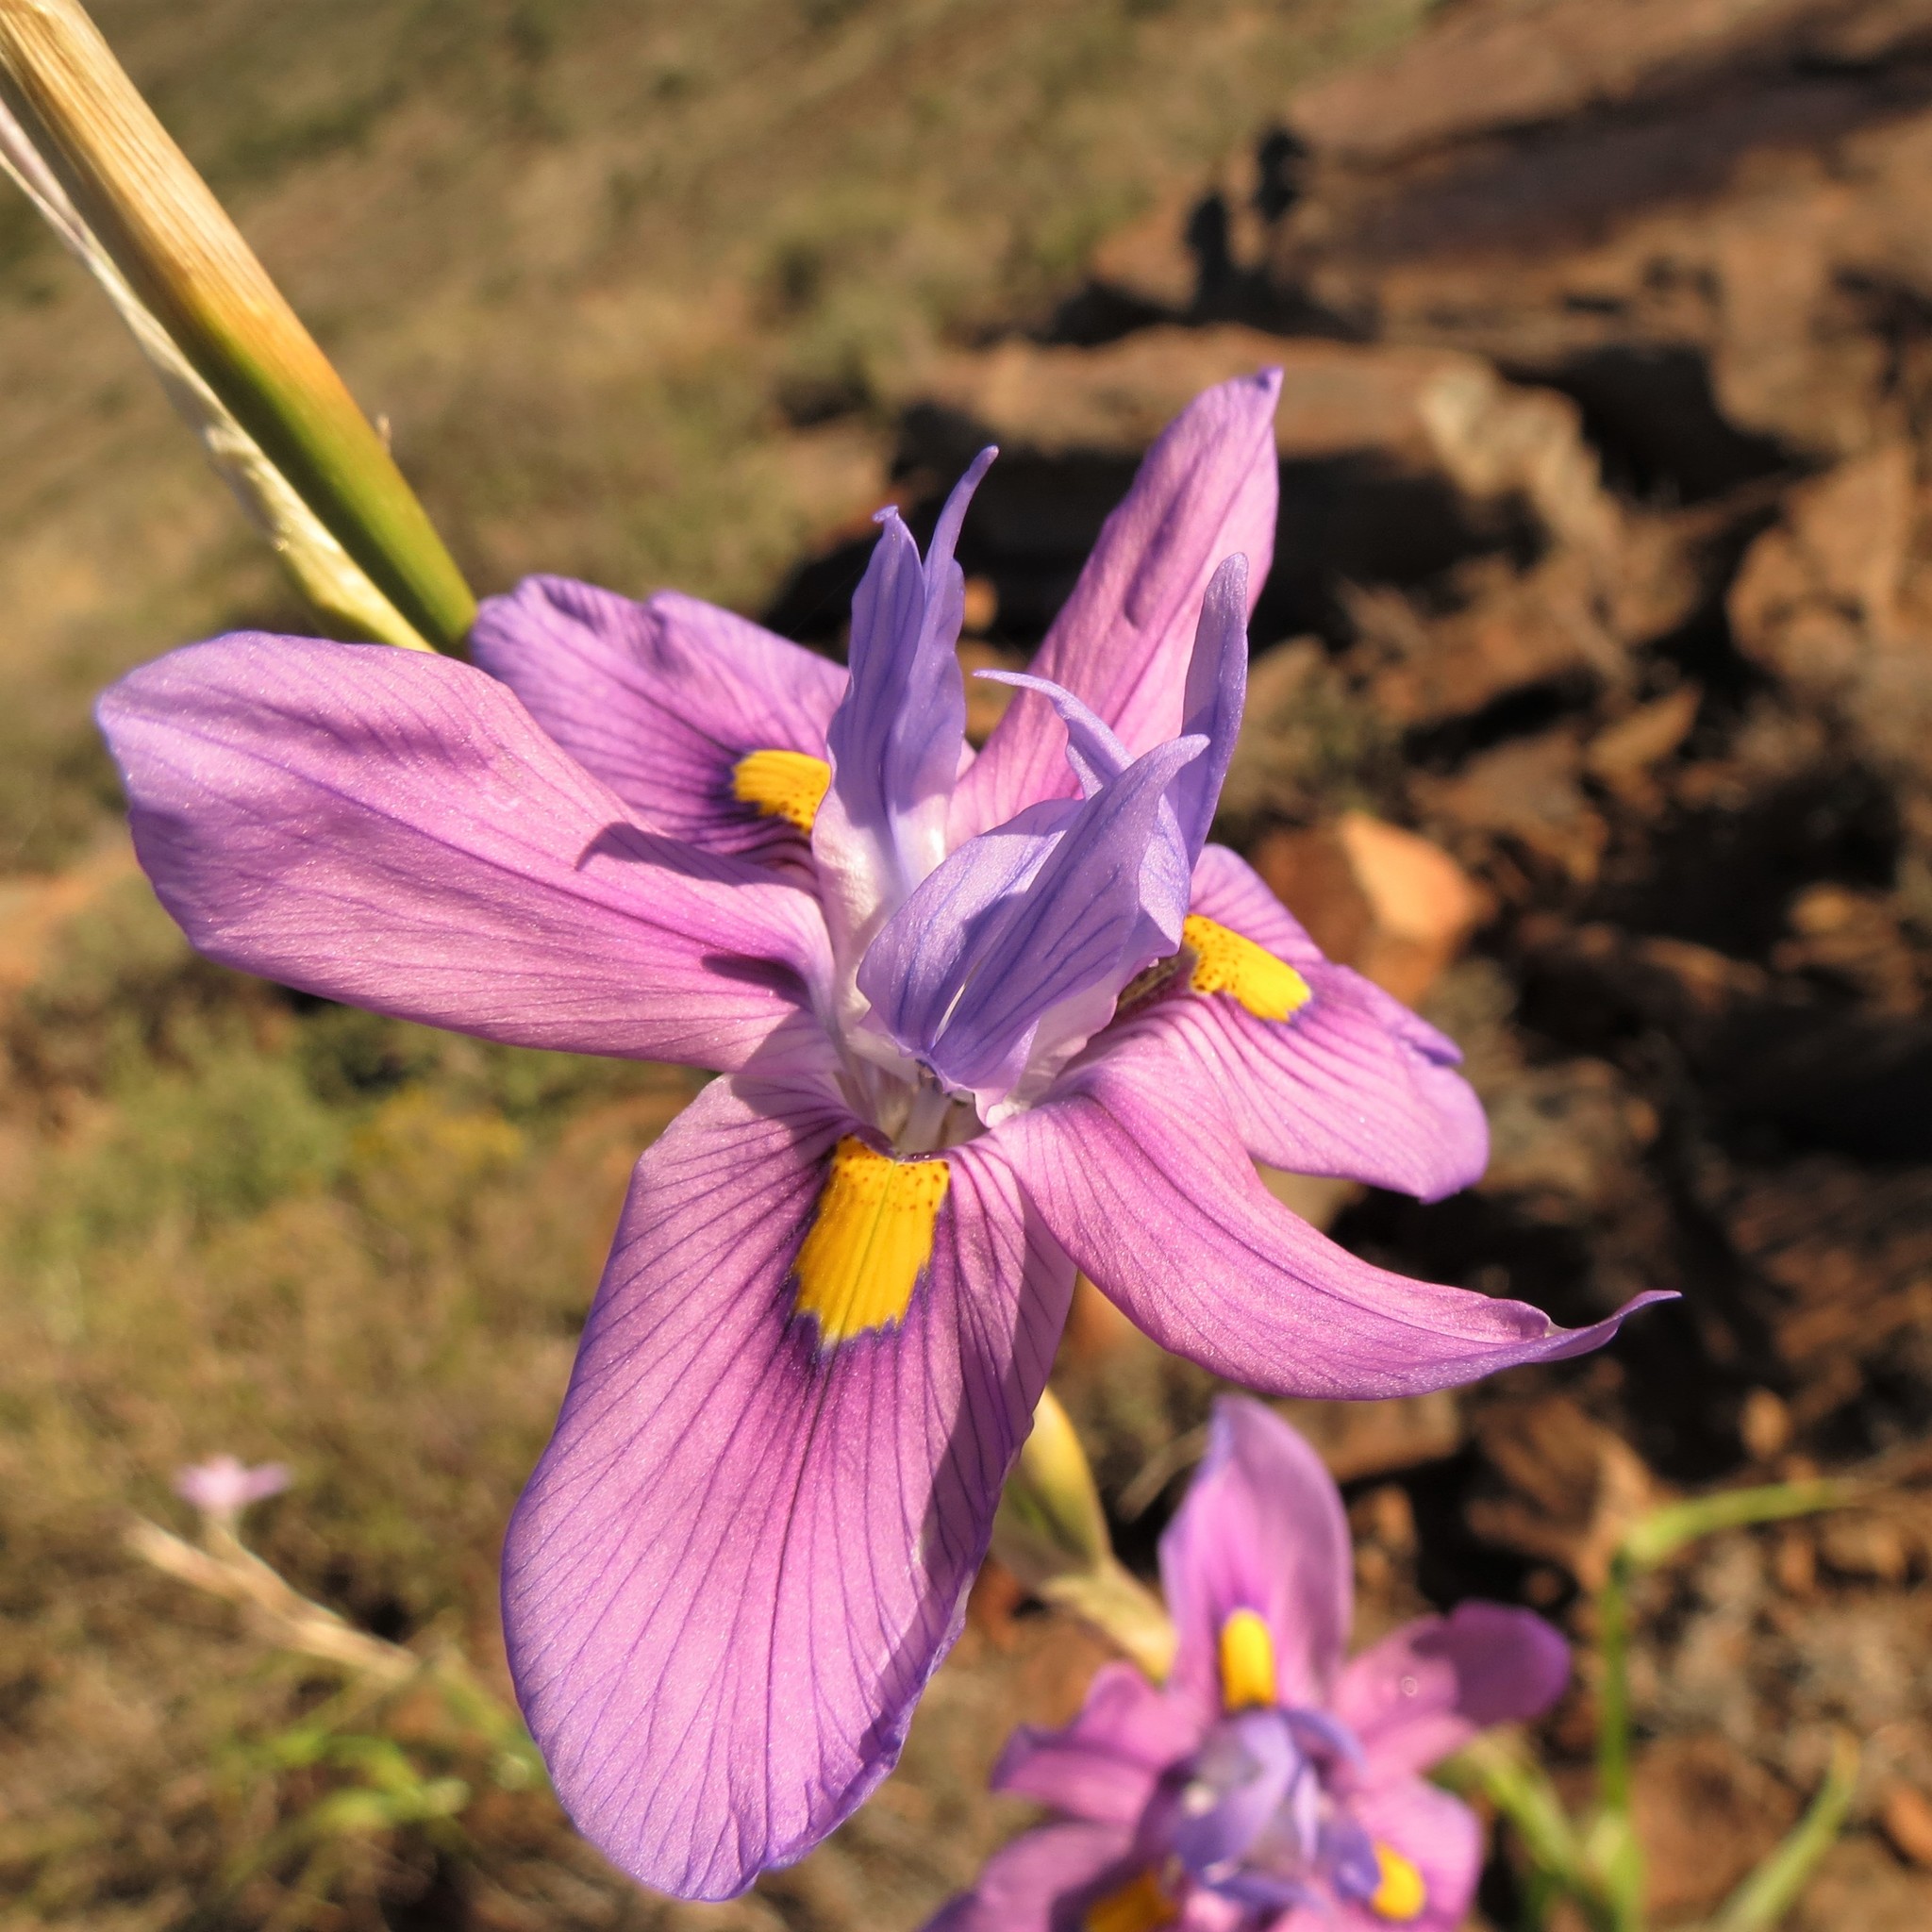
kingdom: Plantae
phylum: Tracheophyta
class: Liliopsida
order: Asparagales
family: Iridaceae
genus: Moraea
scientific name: Moraea polystachya
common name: Blue-tulip
